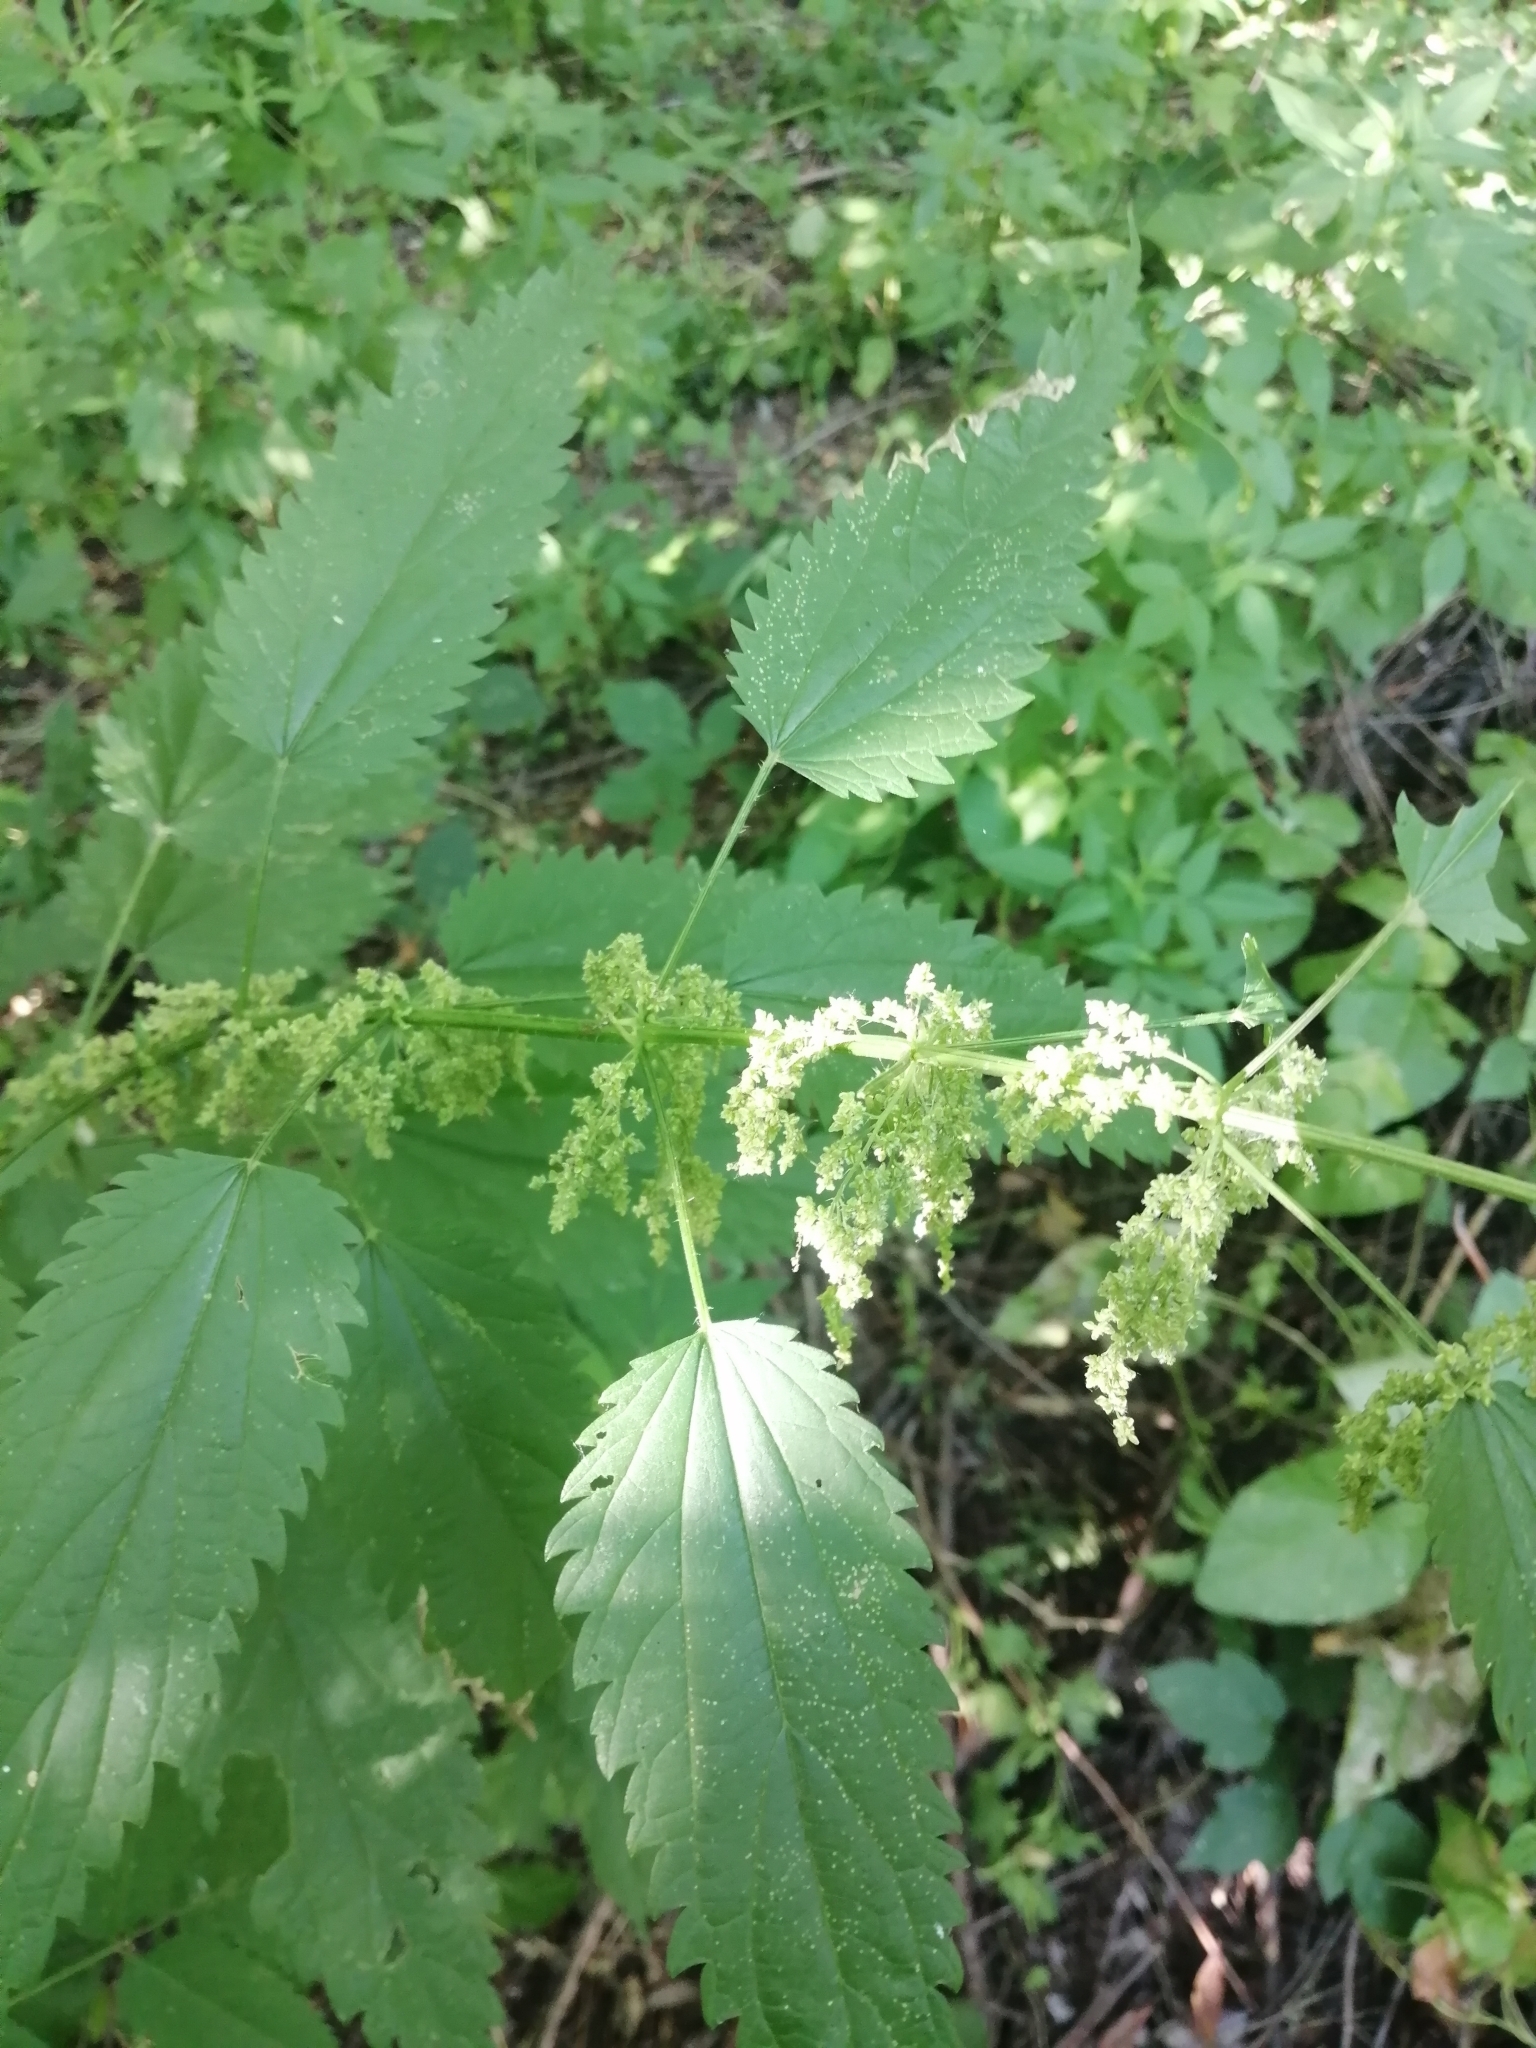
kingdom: Plantae
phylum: Tracheophyta
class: Magnoliopsida
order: Rosales
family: Urticaceae
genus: Urtica
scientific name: Urtica dioica
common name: Common nettle
